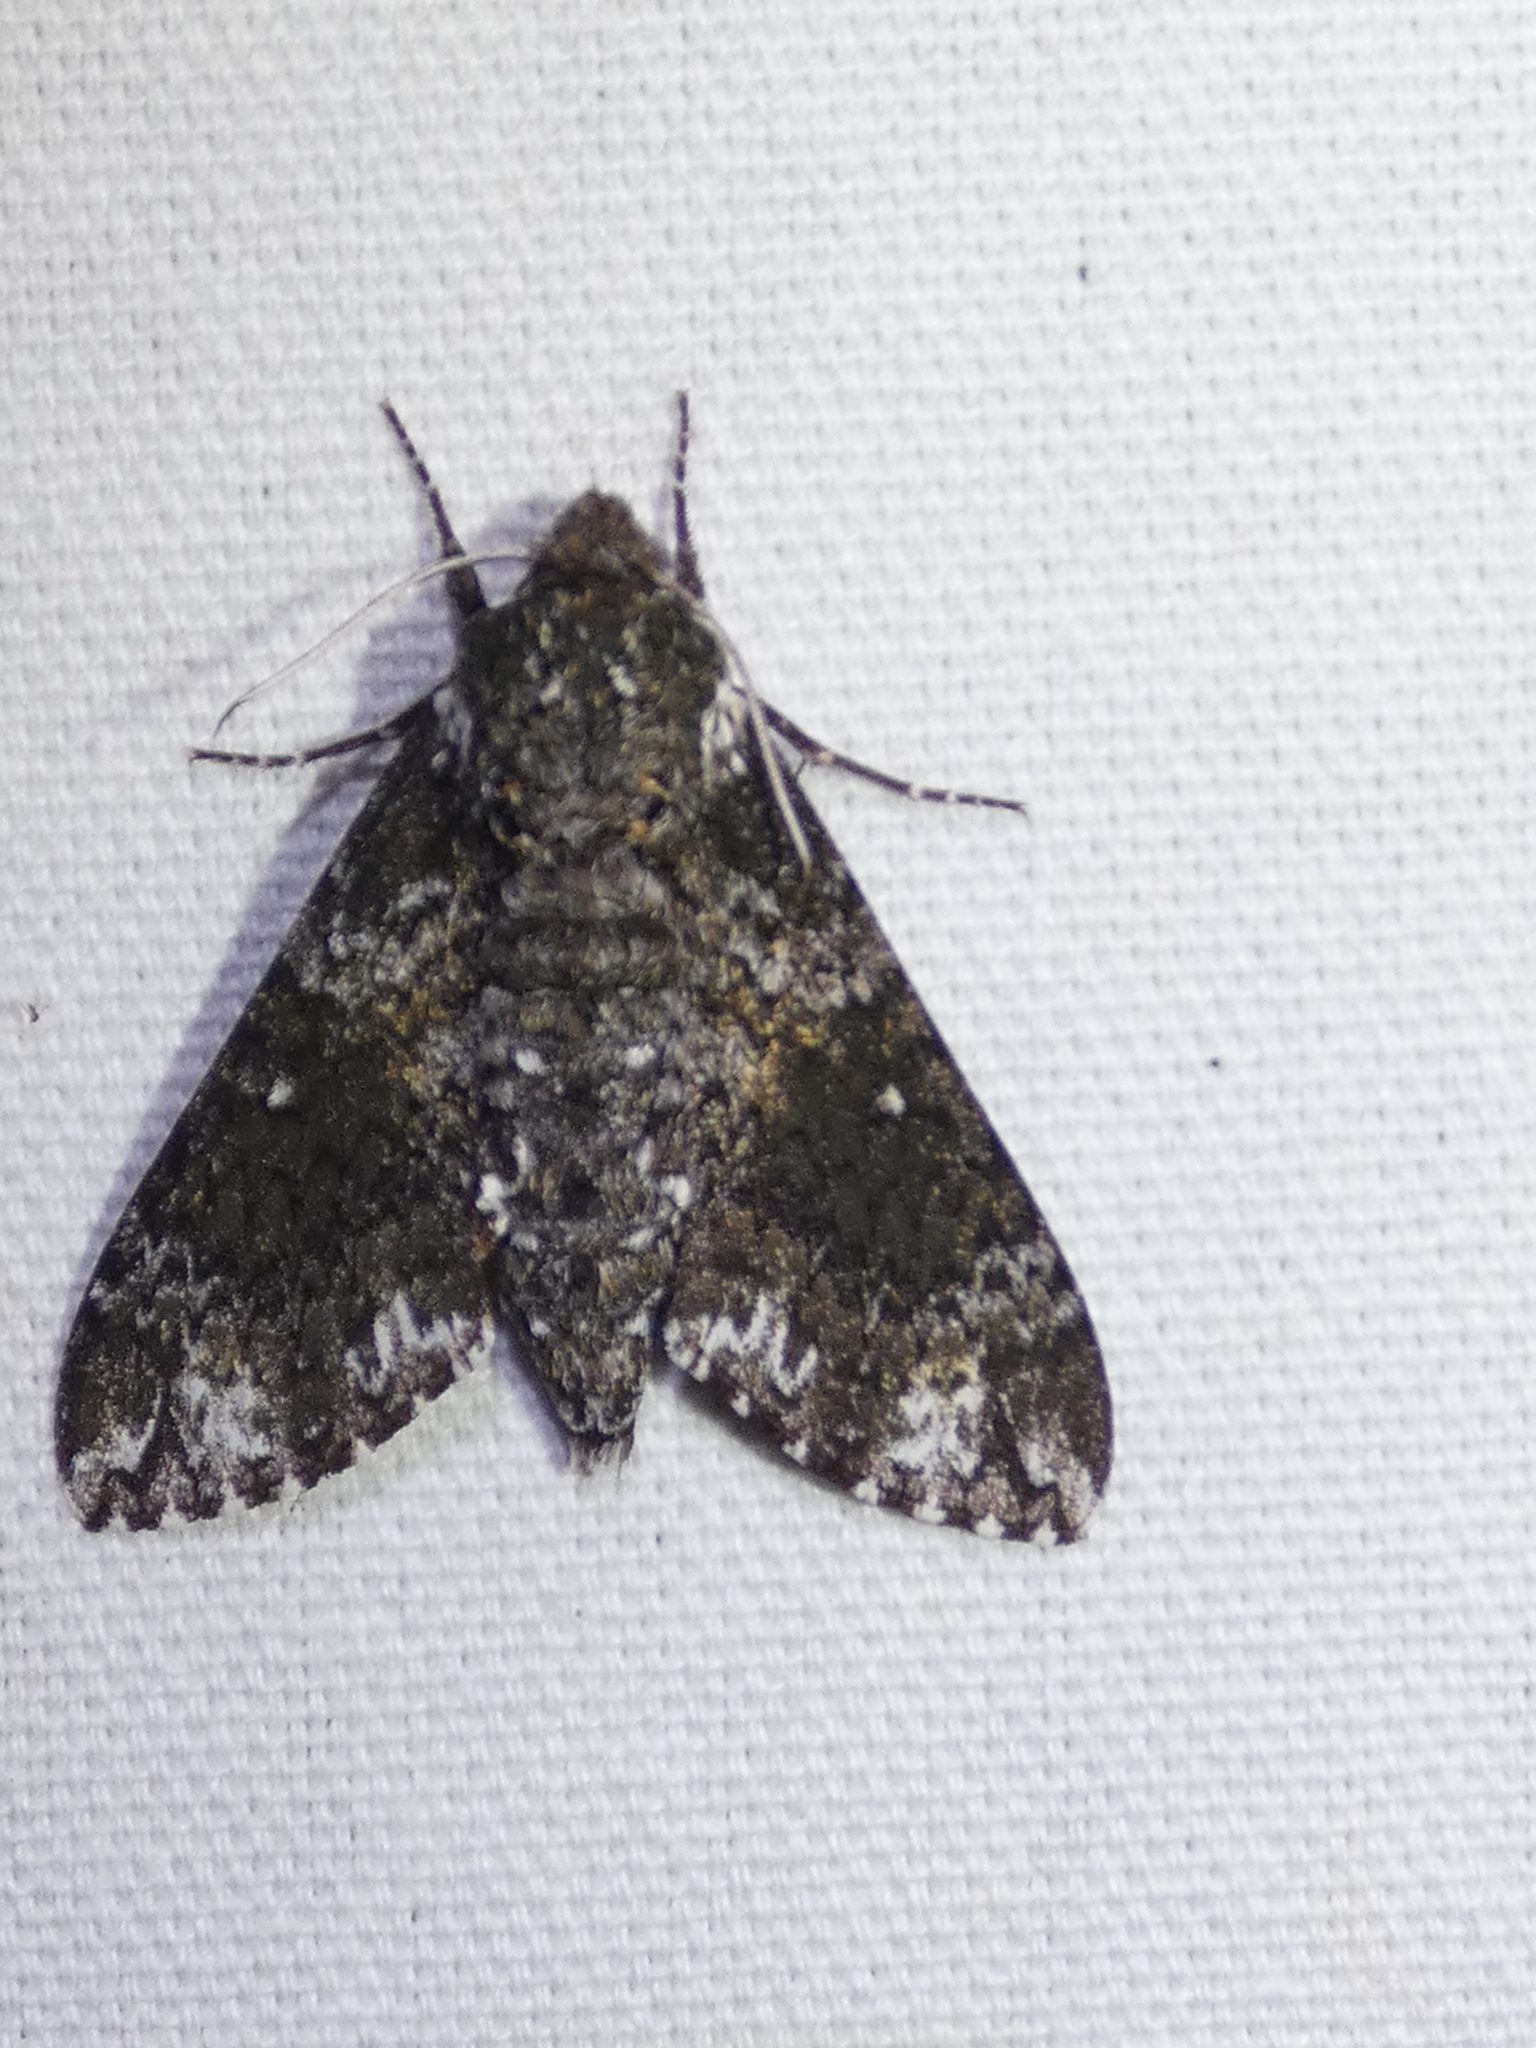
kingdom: Animalia
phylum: Arthropoda
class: Insecta
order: Lepidoptera
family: Sphingidae
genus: Dolba
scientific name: Dolba hyloeus
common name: Pawpaw sphinx
